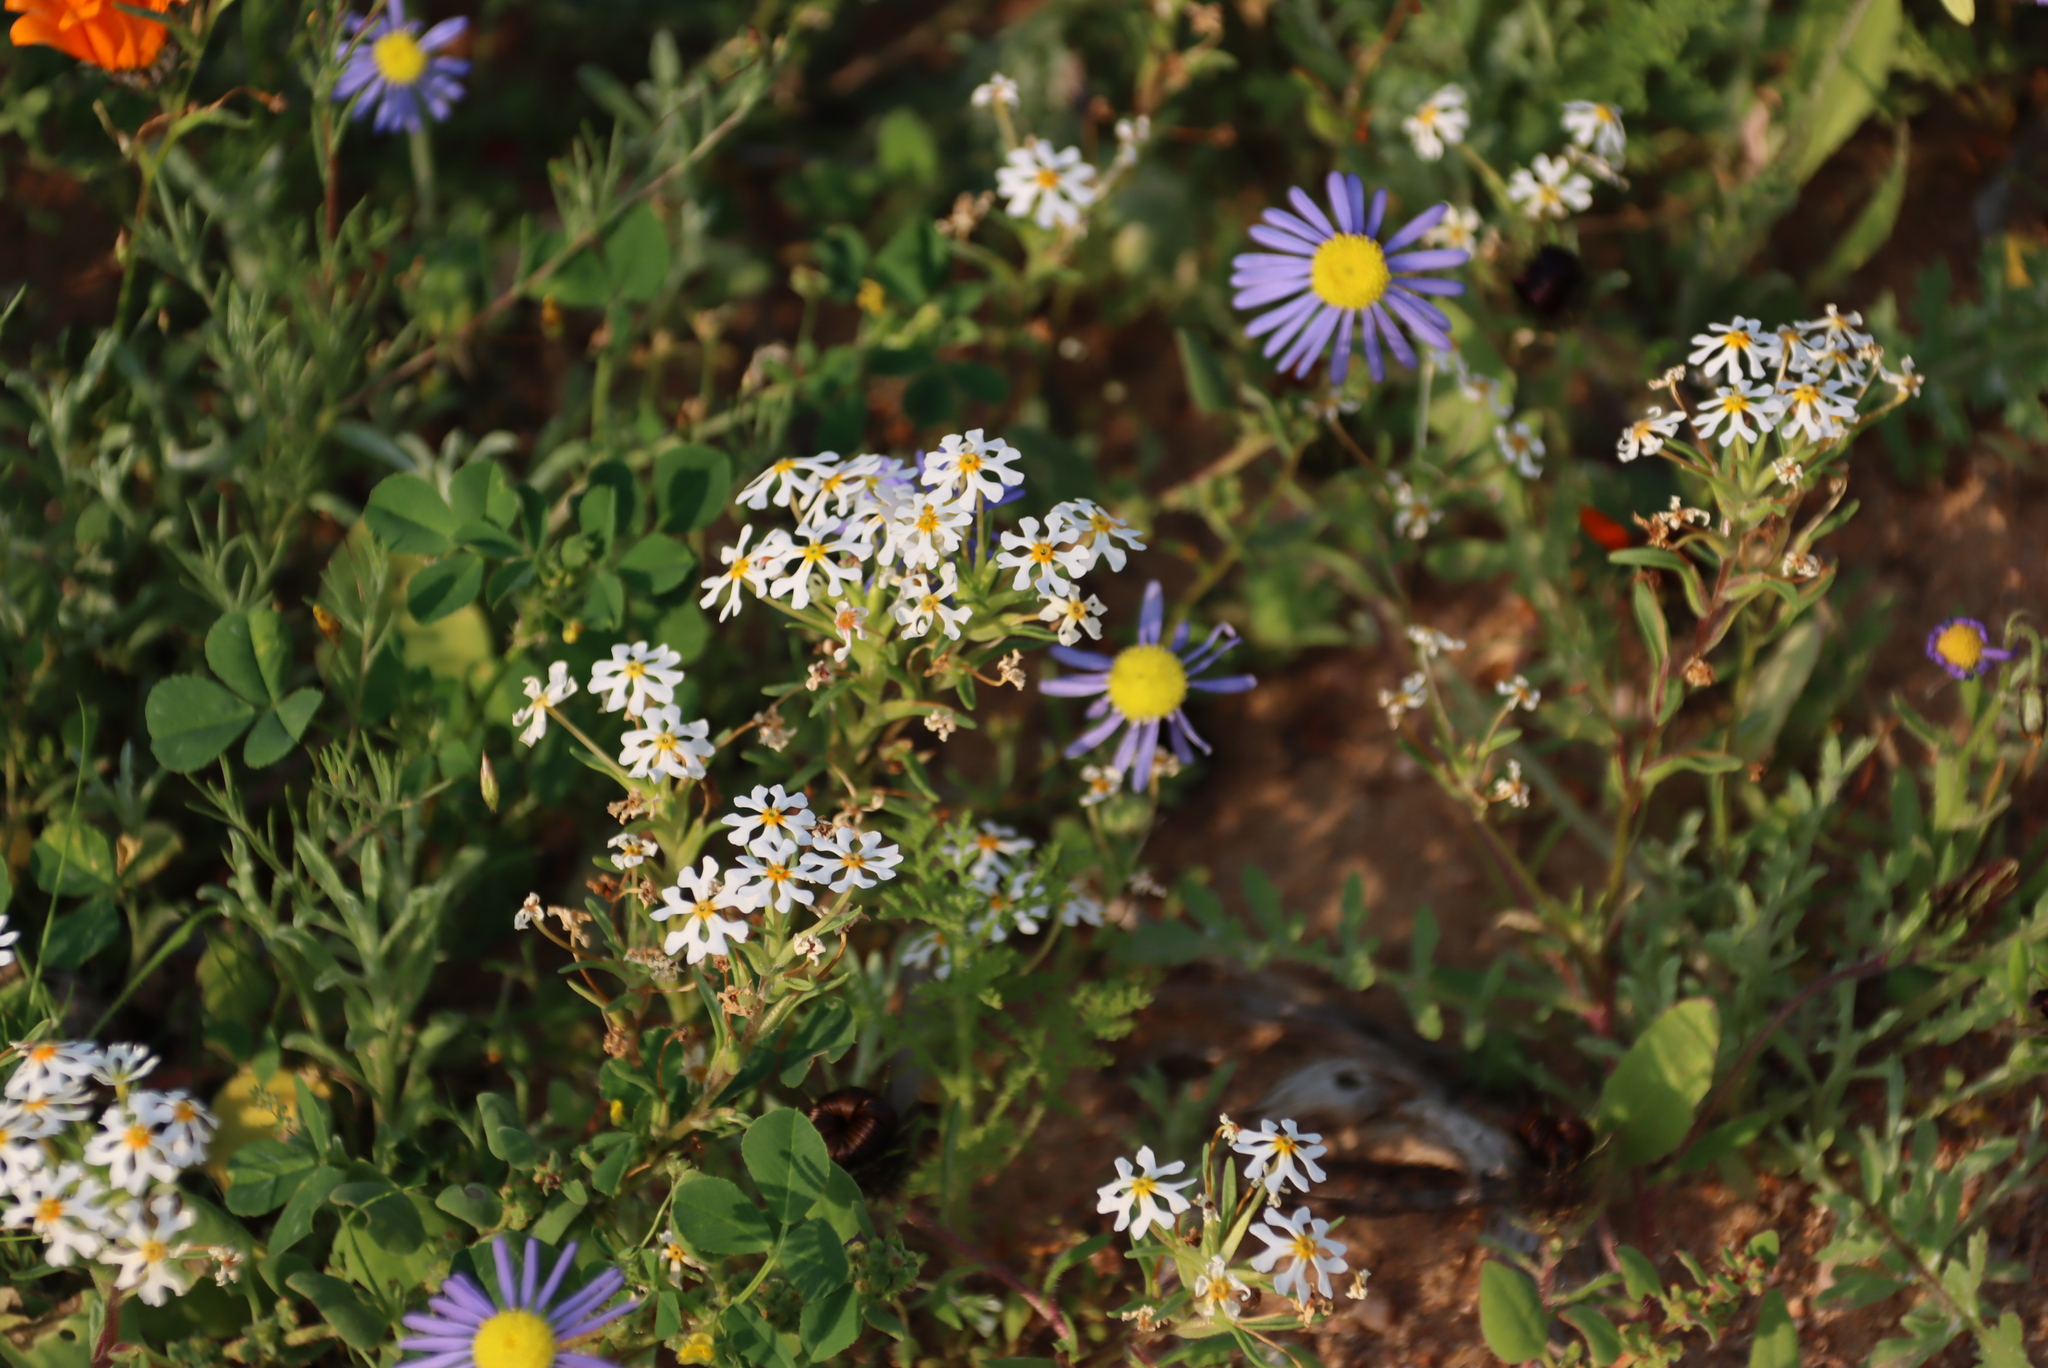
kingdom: Plantae
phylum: Tracheophyta
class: Magnoliopsida
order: Lamiales
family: Scrophulariaceae
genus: Zaluzianskya
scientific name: Zaluzianskya affinis
